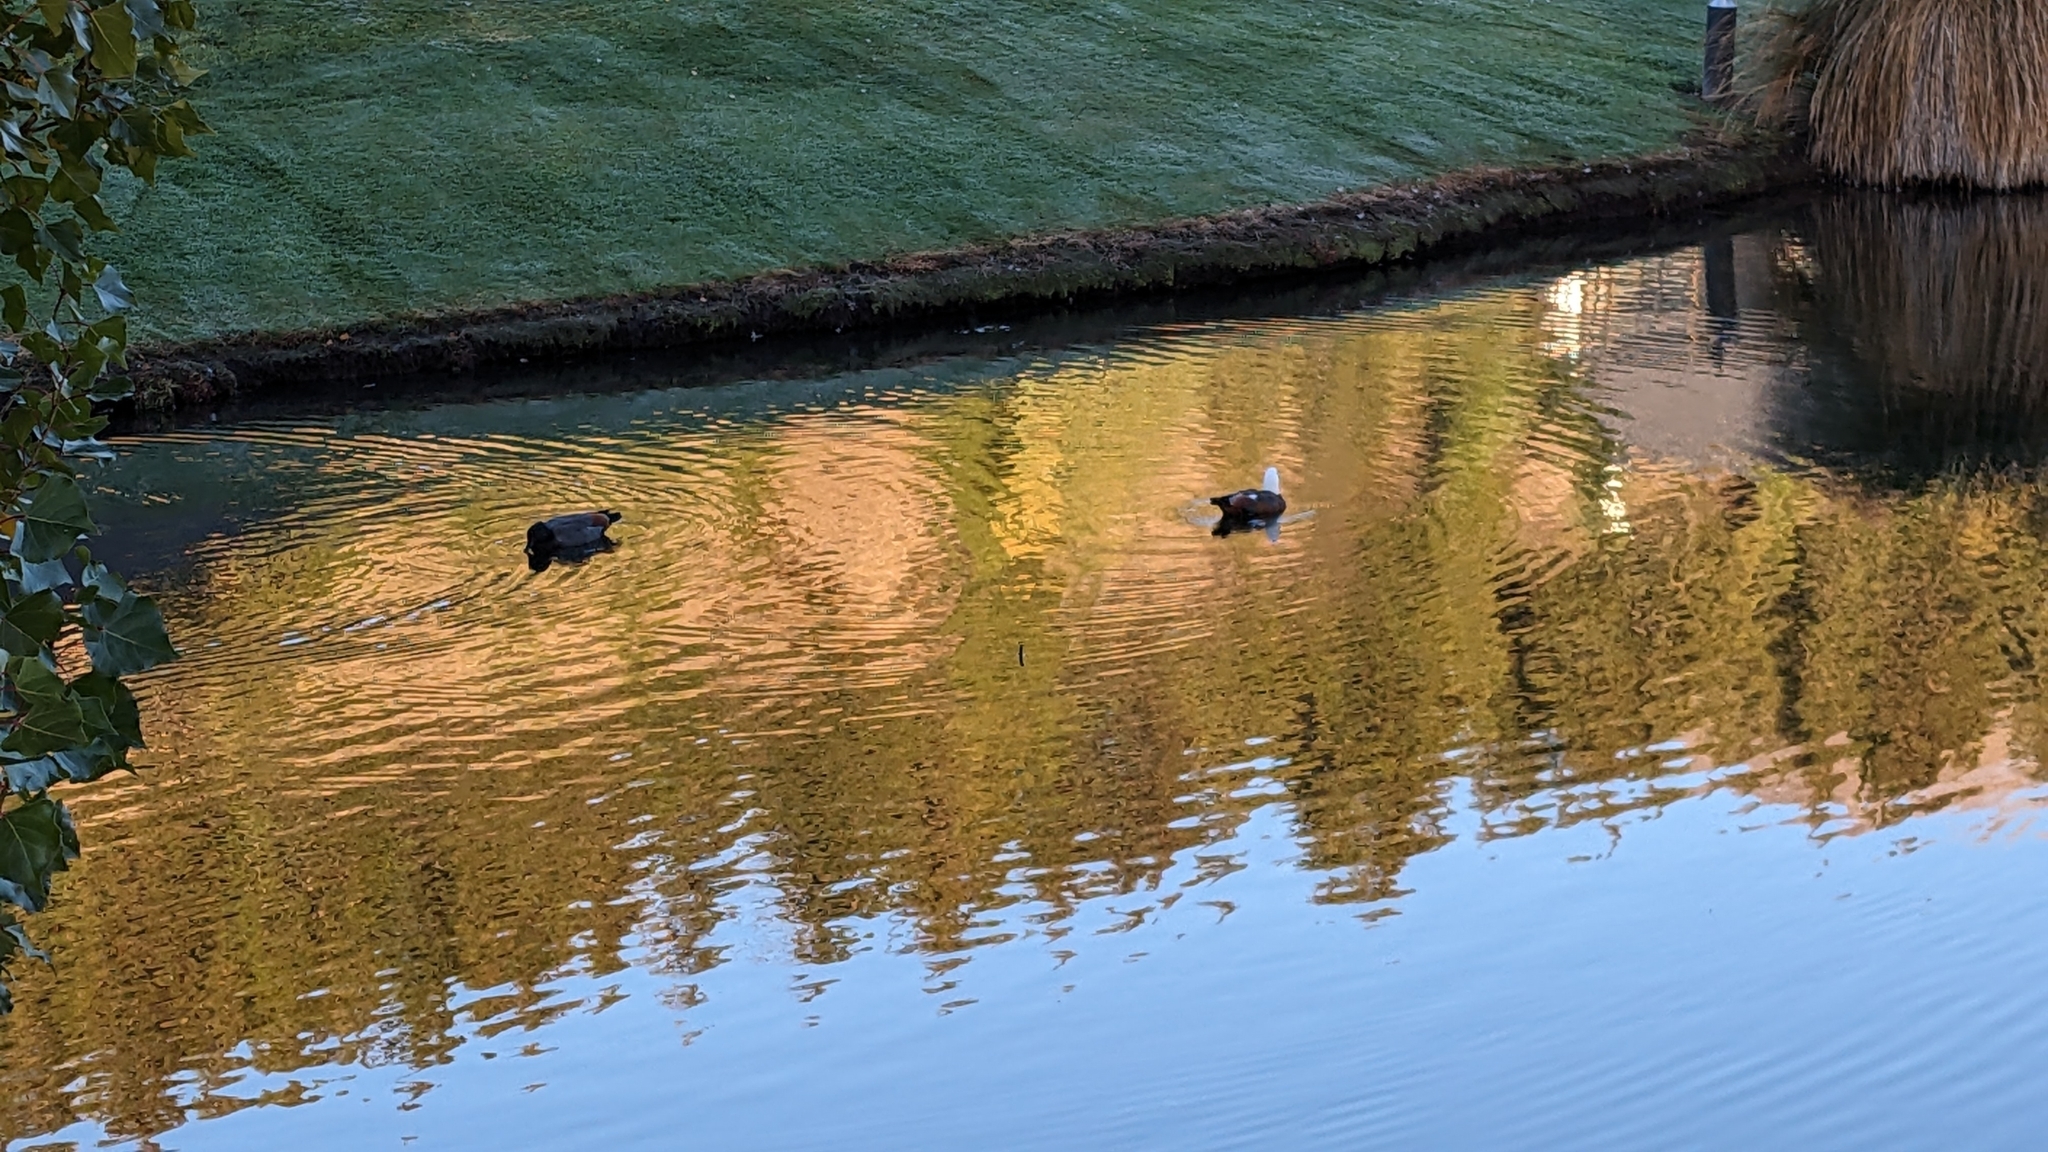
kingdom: Animalia
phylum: Chordata
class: Aves
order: Anseriformes
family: Anatidae
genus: Tadorna
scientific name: Tadorna variegata
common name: Paradise shelduck
